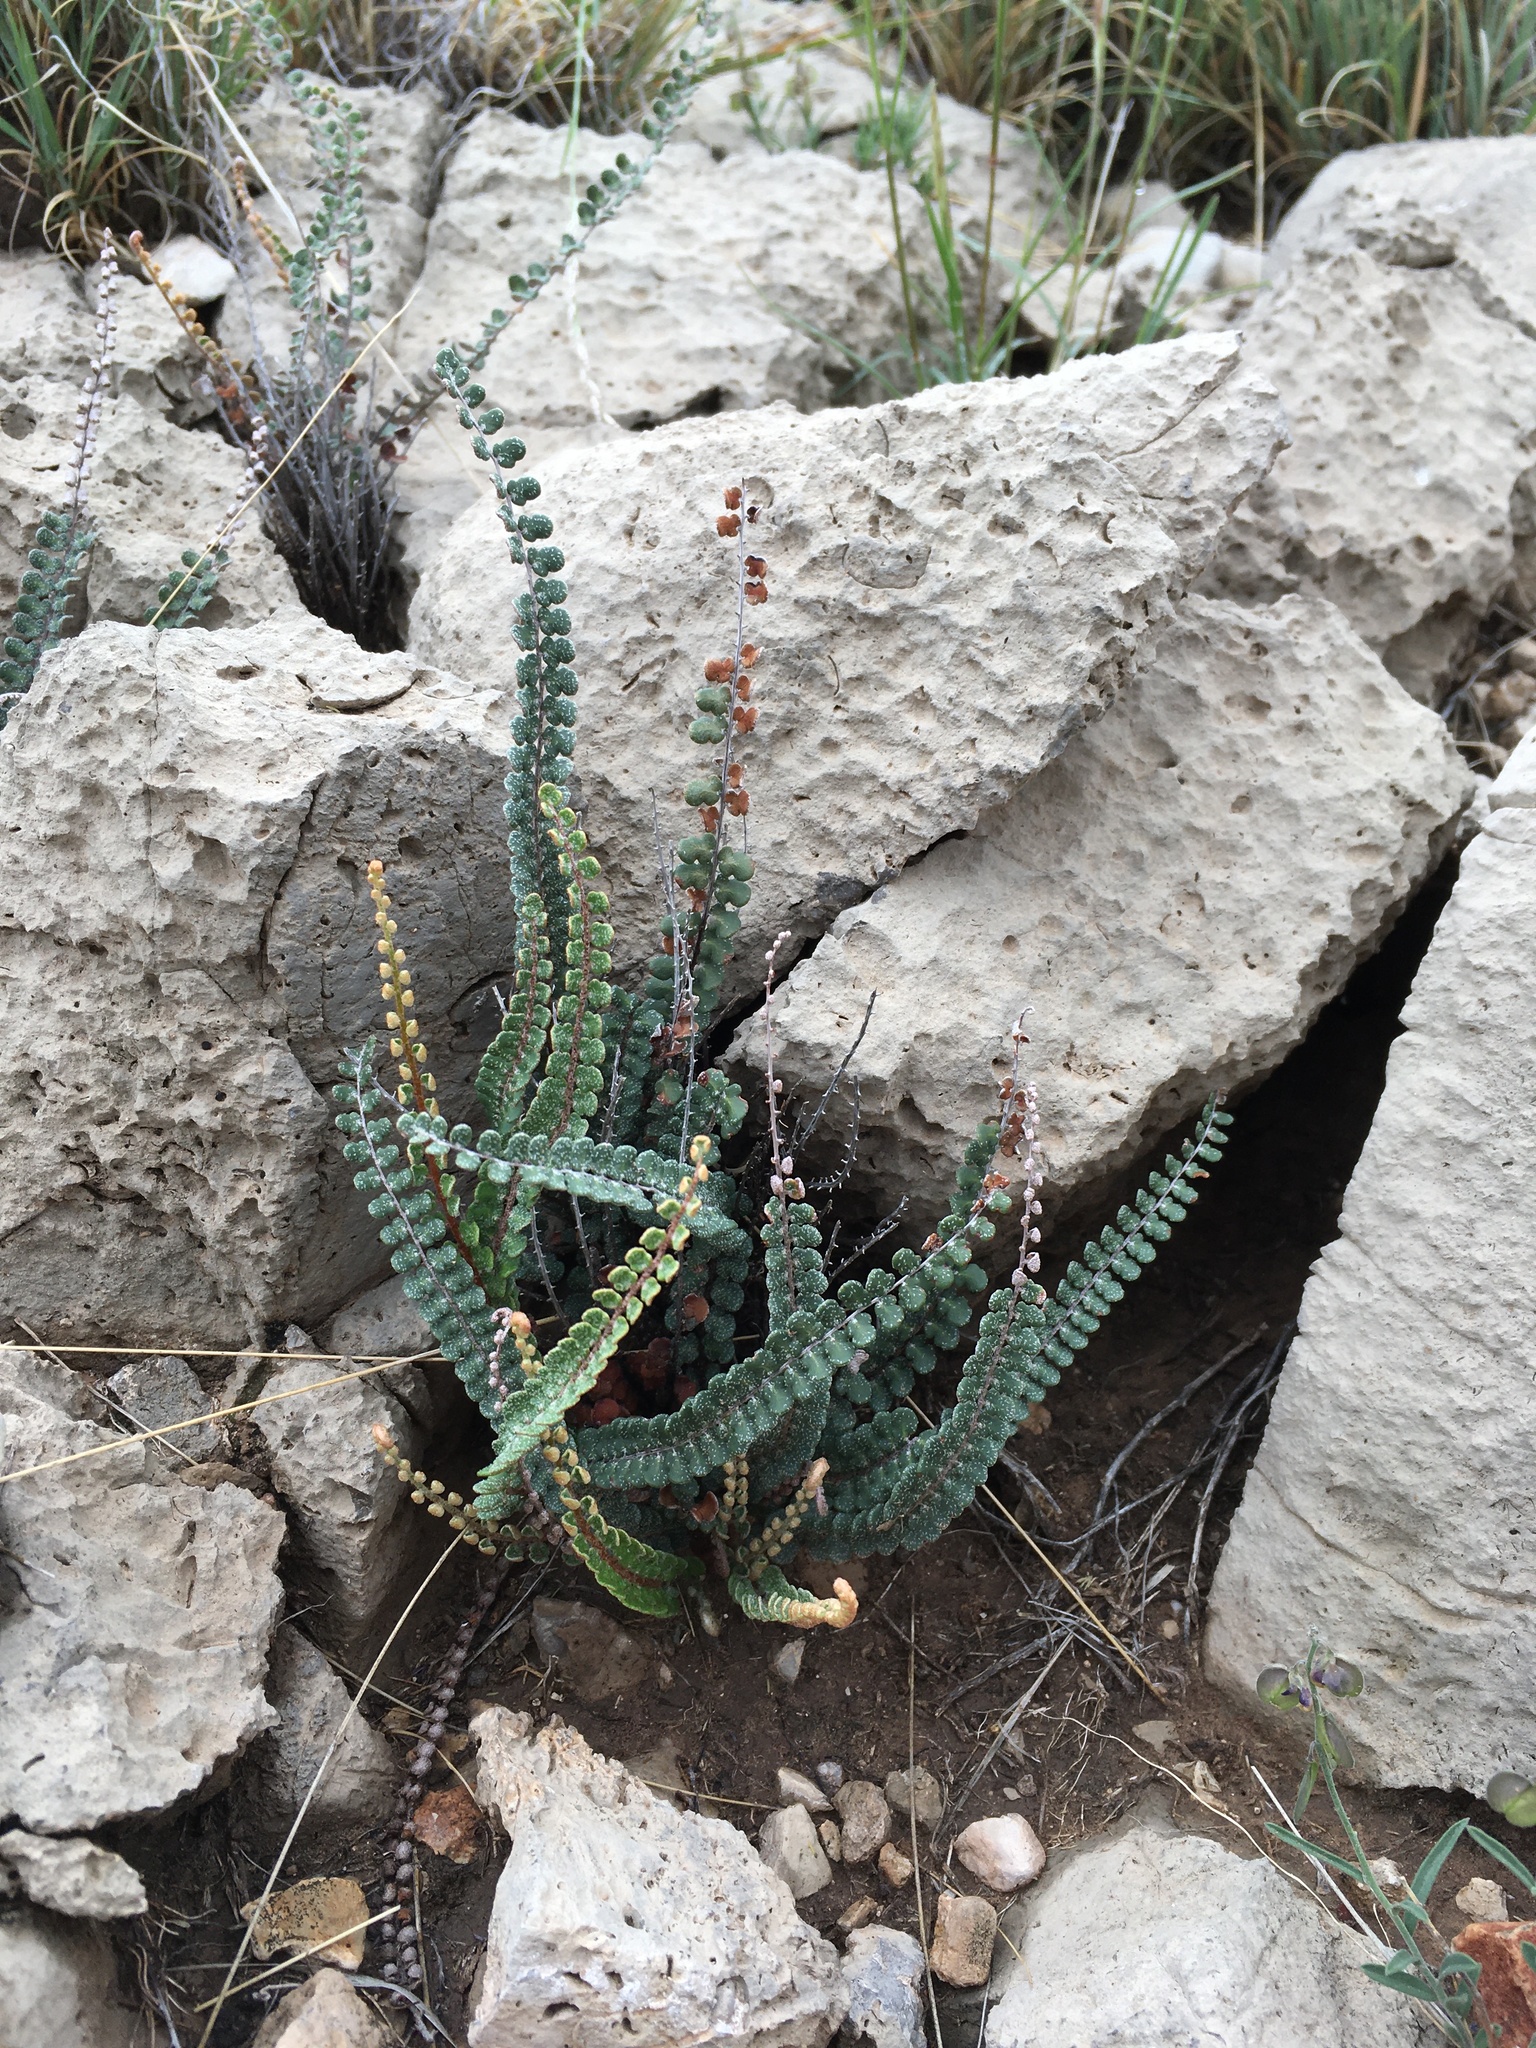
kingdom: Plantae
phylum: Tracheophyta
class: Polypodiopsida
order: Polypodiales
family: Pteridaceae
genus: Astrolepis
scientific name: Astrolepis cochisensis
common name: Scaly cloak fern
